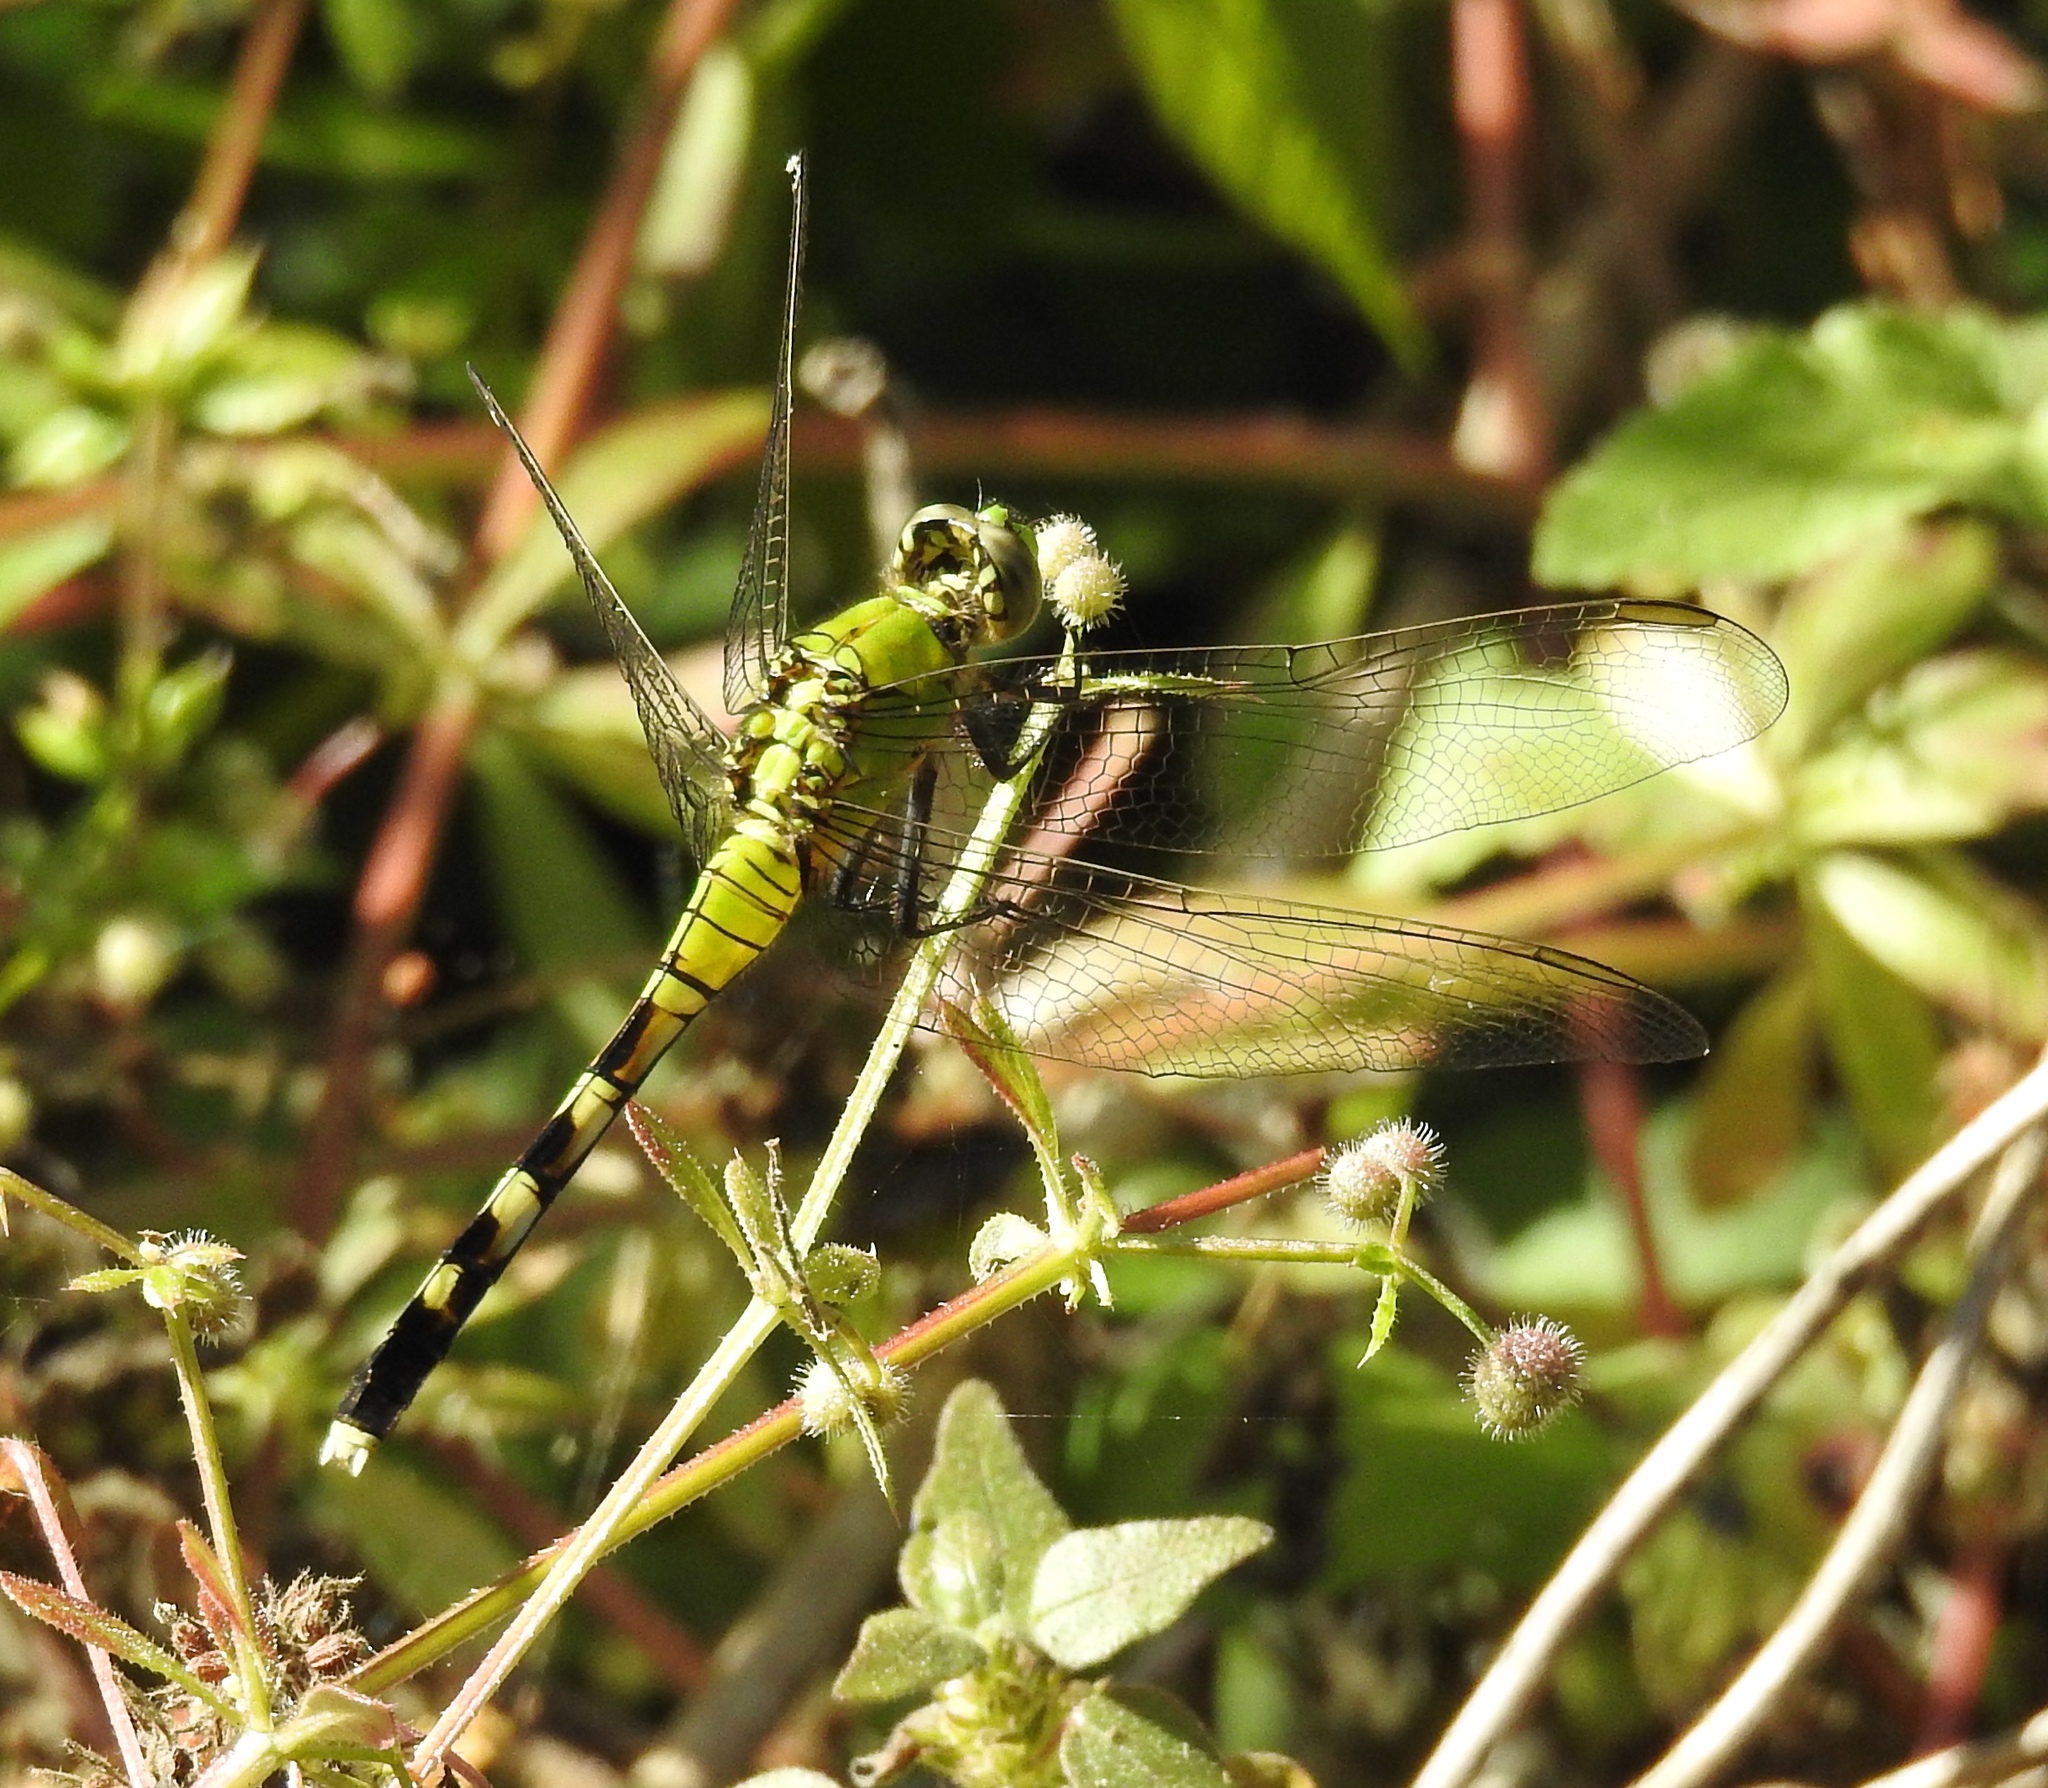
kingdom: Animalia
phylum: Arthropoda
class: Insecta
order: Odonata
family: Libellulidae
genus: Erythemis
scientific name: Erythemis simplicicollis
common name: Eastern pondhawk
